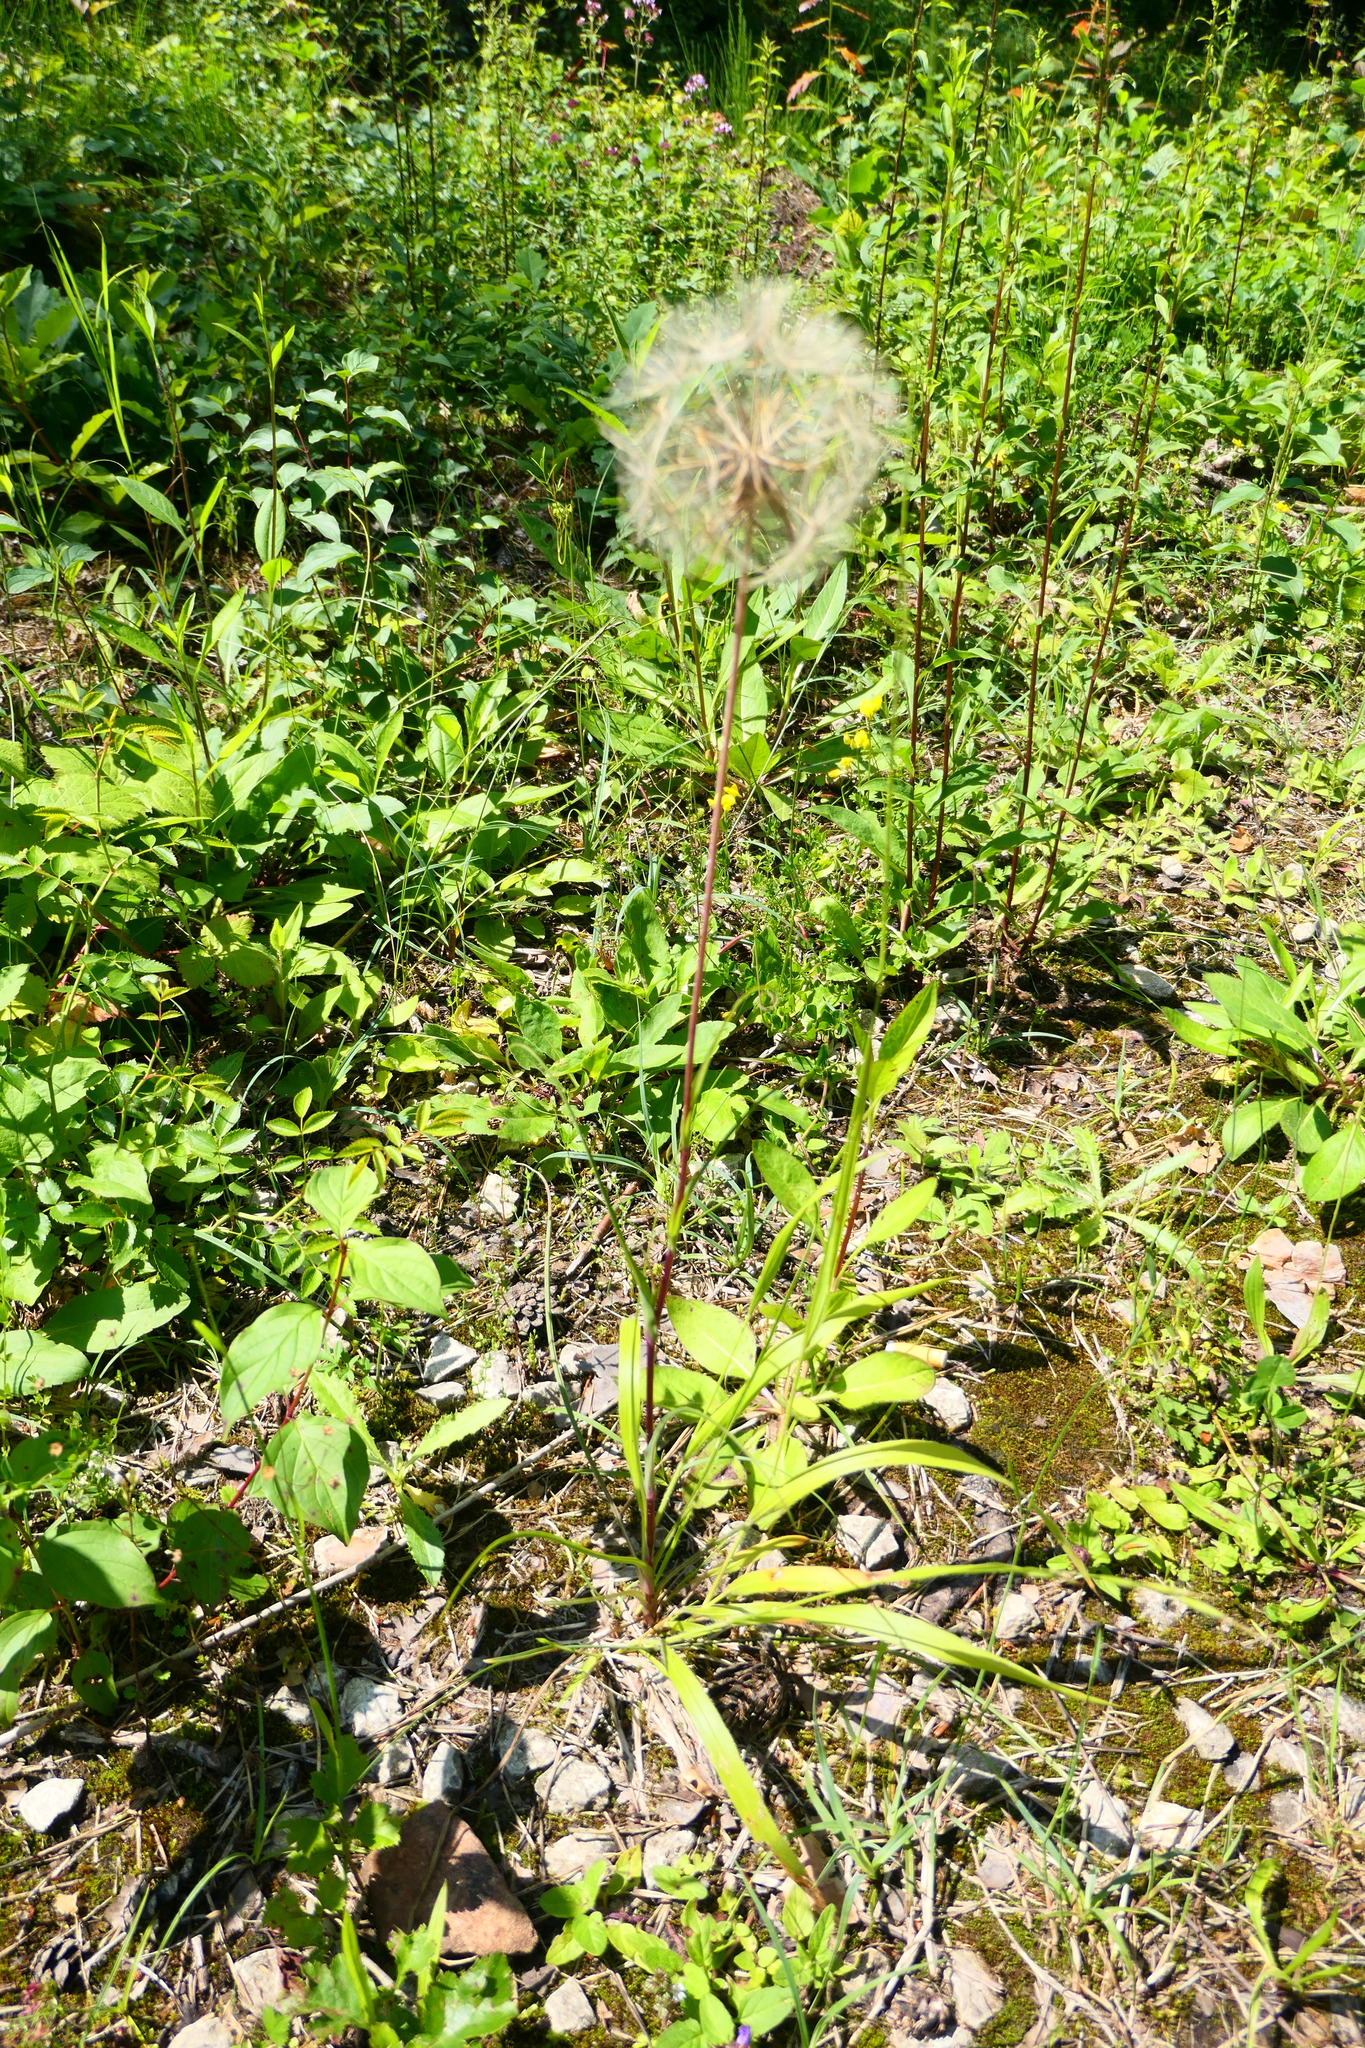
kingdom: Plantae
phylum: Tracheophyta
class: Magnoliopsida
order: Asterales
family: Asteraceae
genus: Tragopogon
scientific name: Tragopogon pratensis
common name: Goat's-beard
